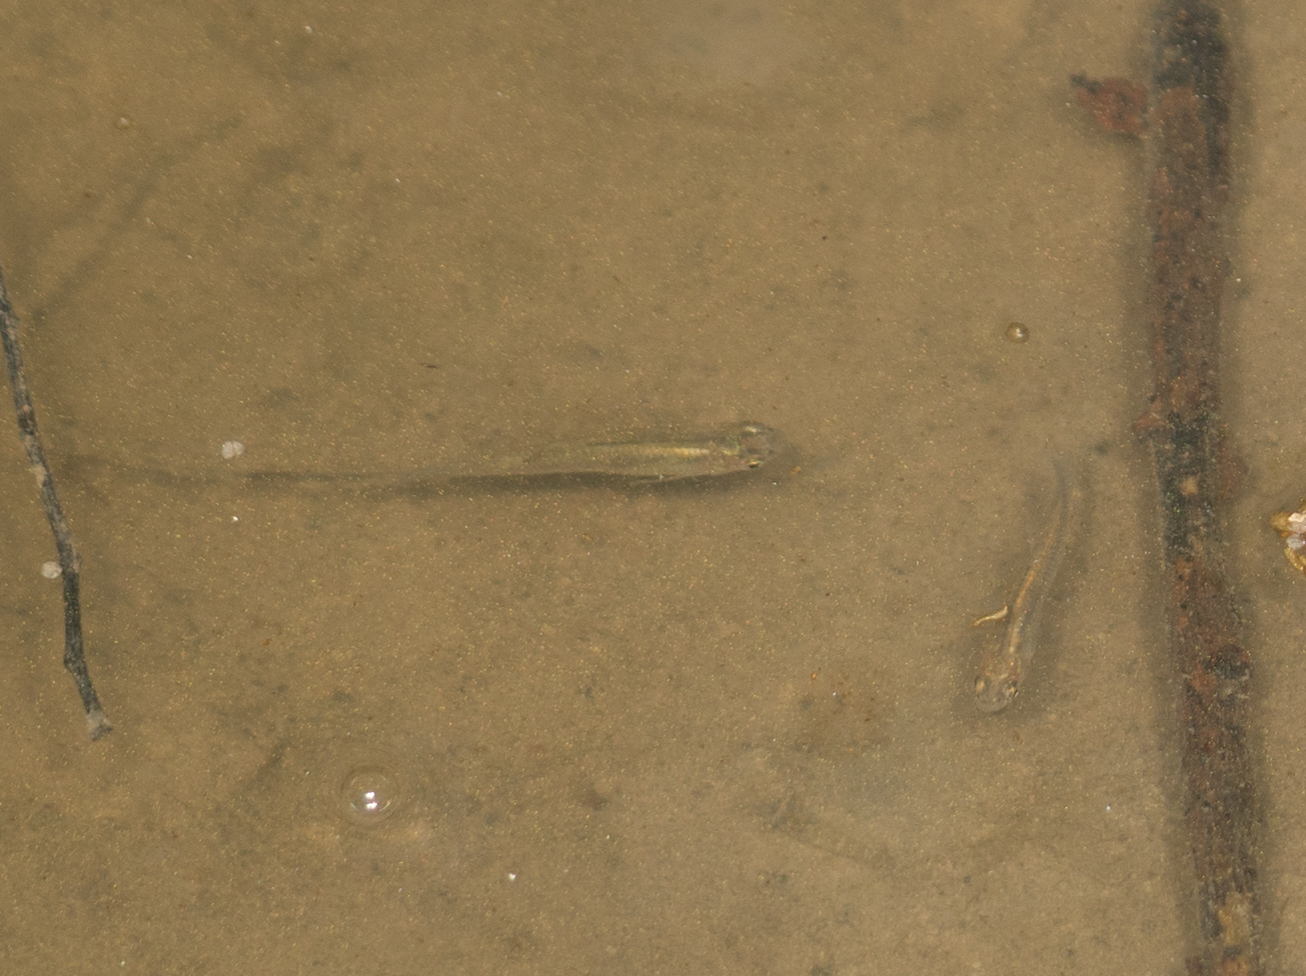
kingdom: Animalia
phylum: Chordata
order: Cyprinodontiformes
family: Poeciliidae
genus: Gambusia
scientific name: Gambusia affinis
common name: Mosquitofish
